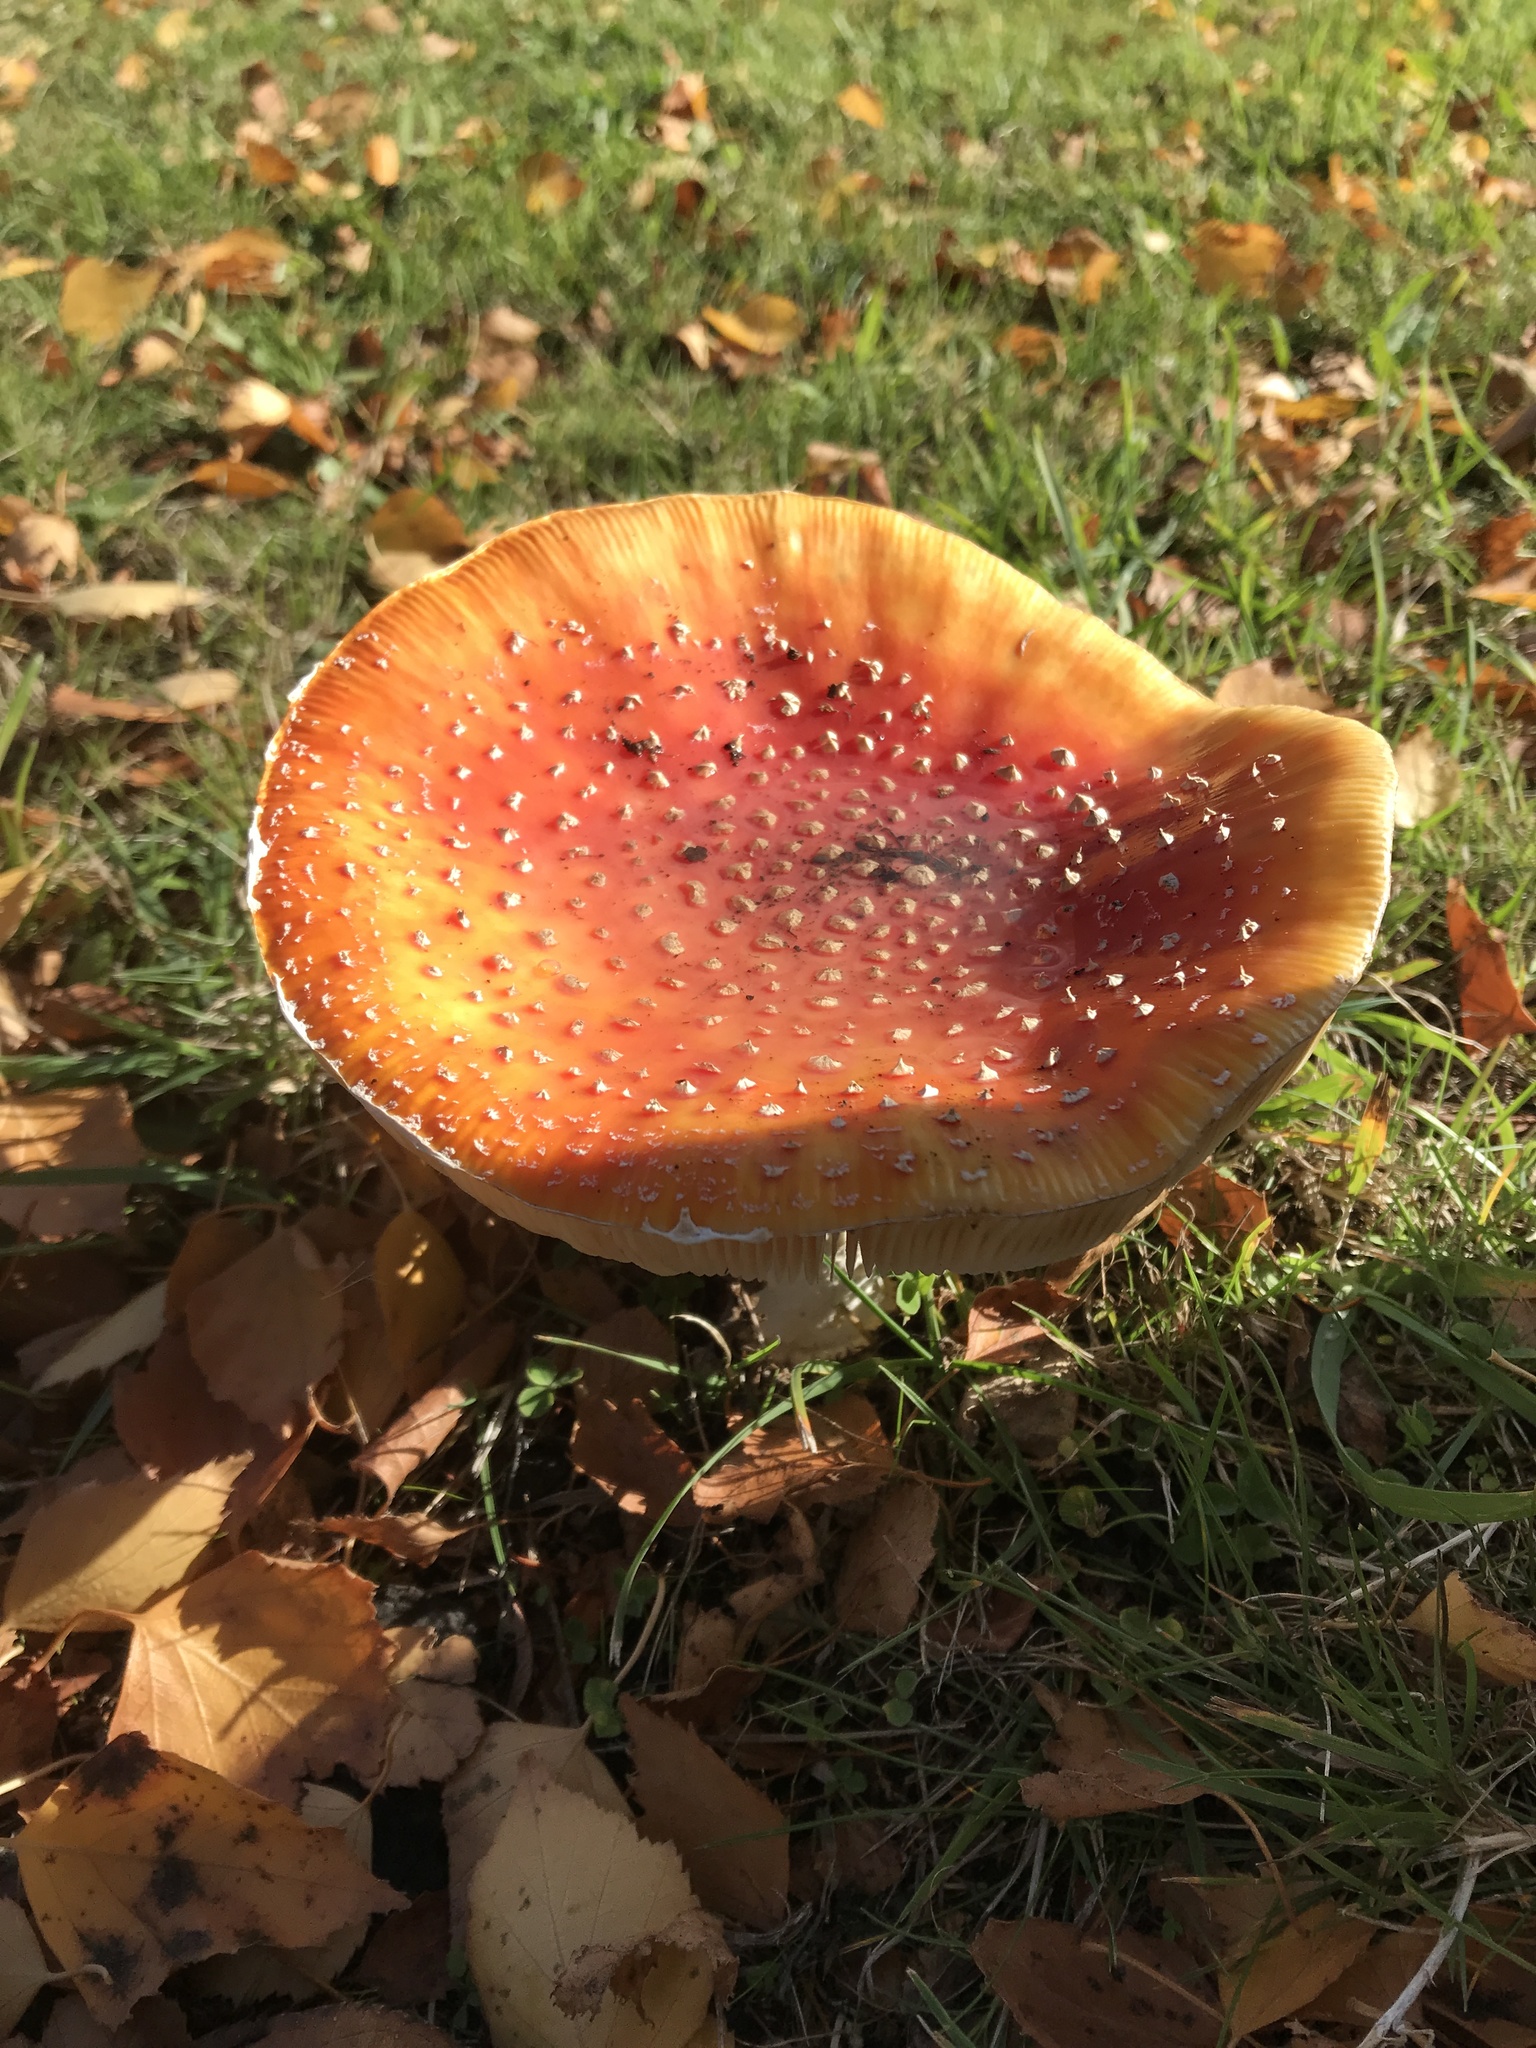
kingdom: Fungi
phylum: Basidiomycota
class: Agaricomycetes
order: Agaricales
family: Amanitaceae
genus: Amanita
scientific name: Amanita muscaria
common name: Fly agaric
